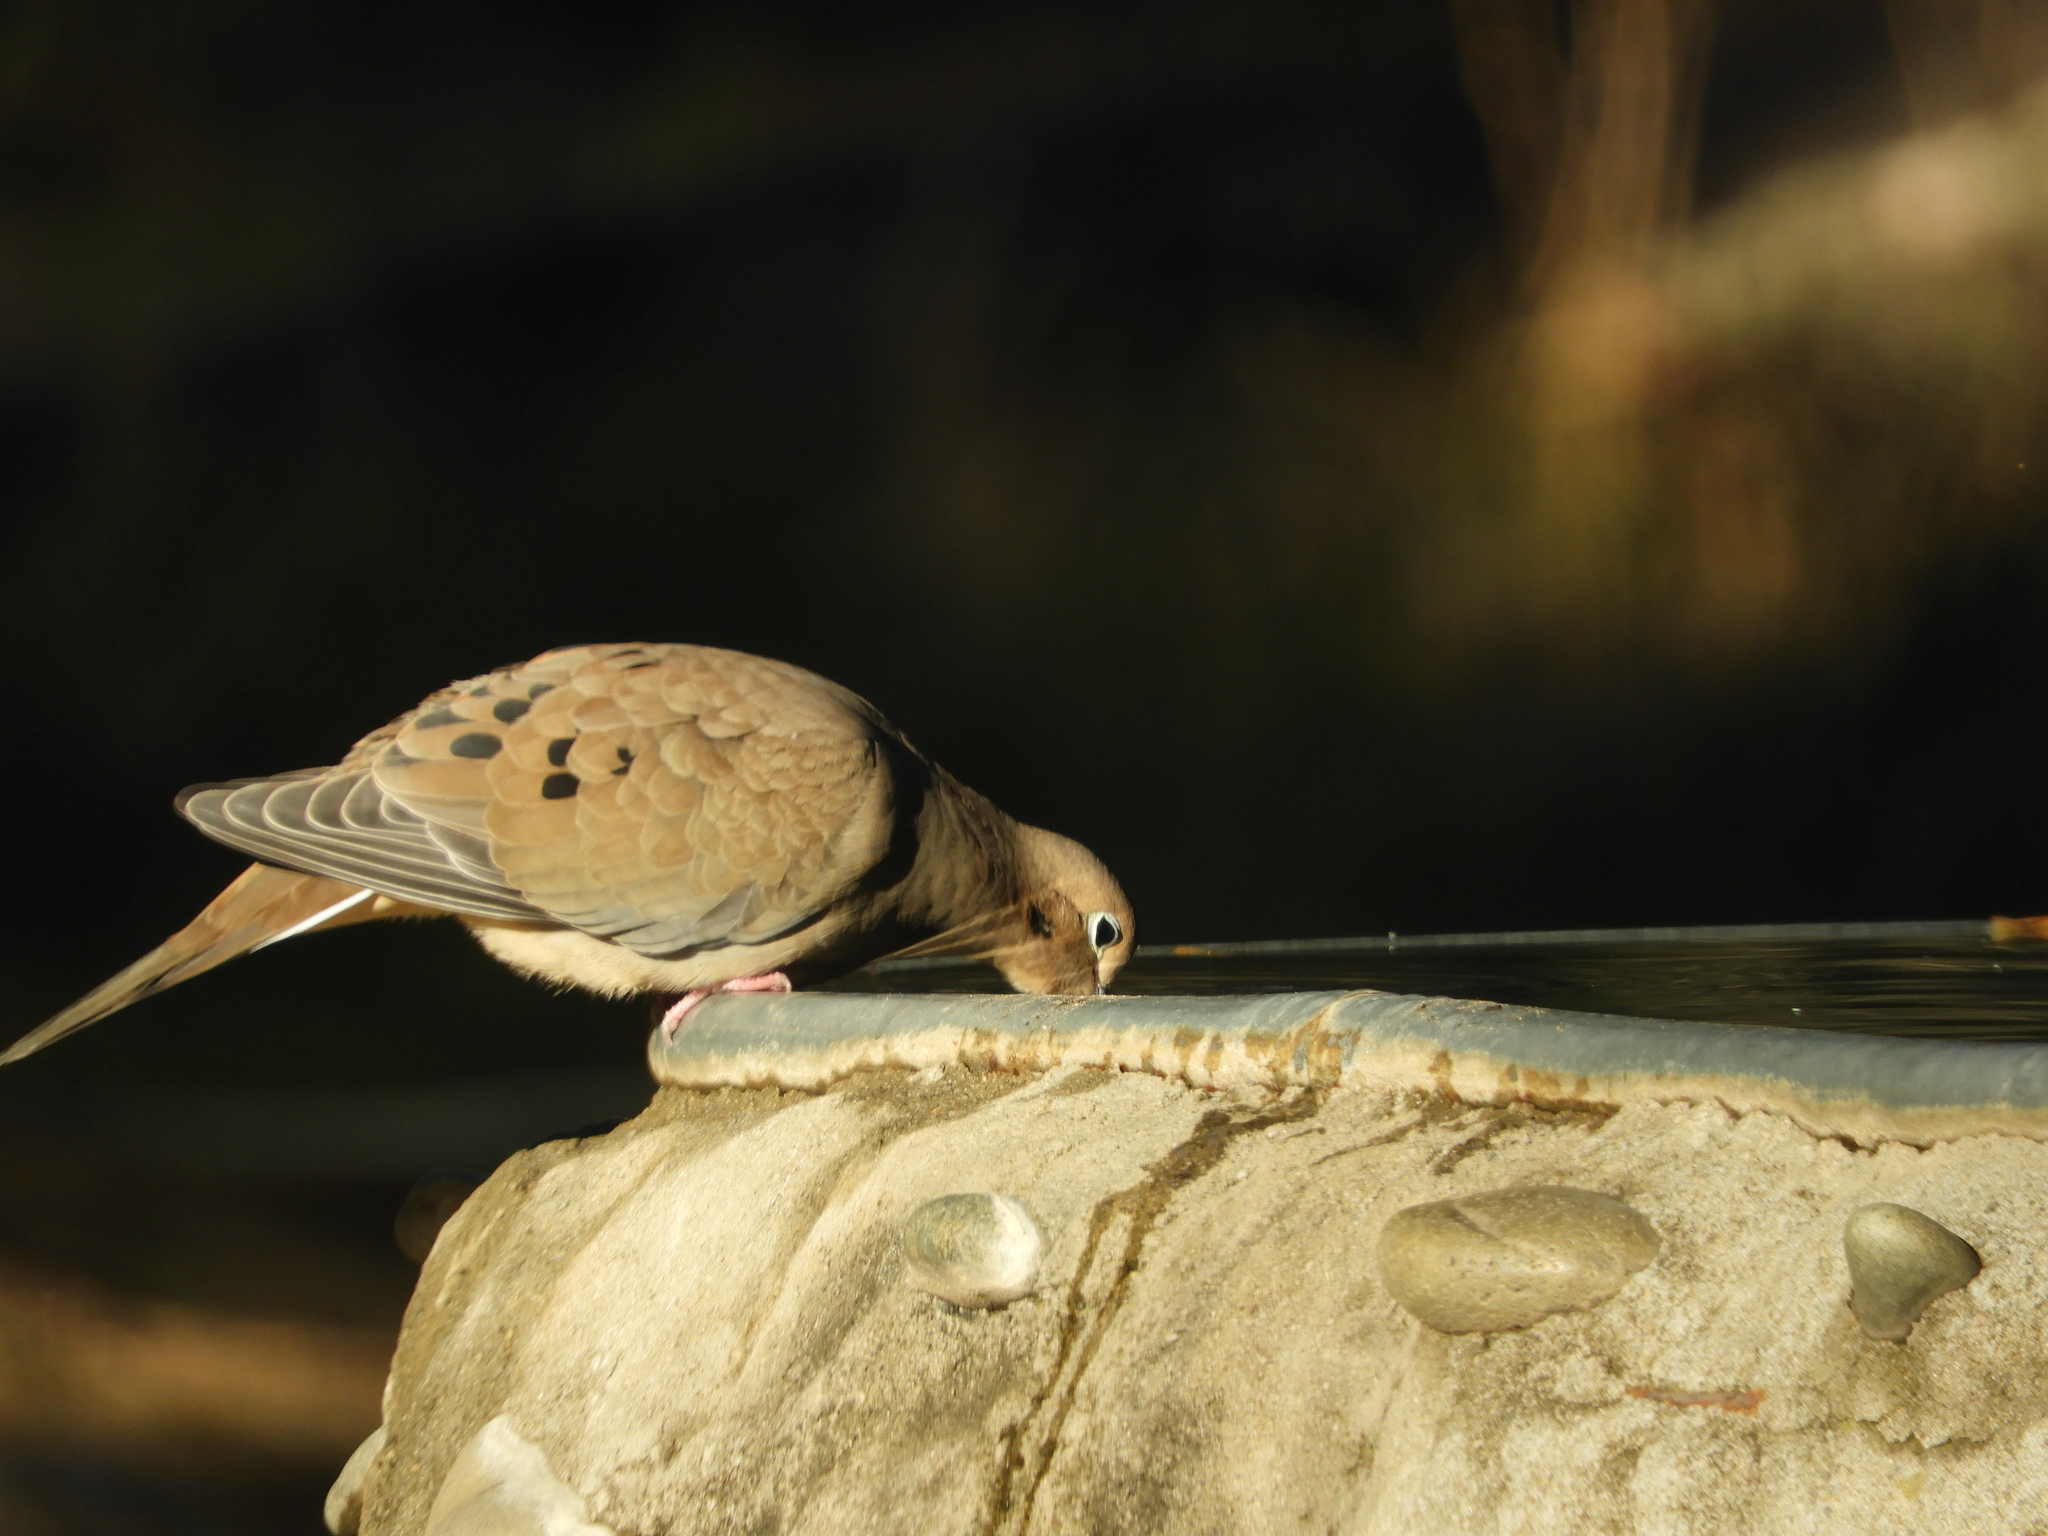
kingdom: Animalia
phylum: Chordata
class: Aves
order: Columbiformes
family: Columbidae
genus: Zenaida
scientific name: Zenaida macroura
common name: Mourning dove
